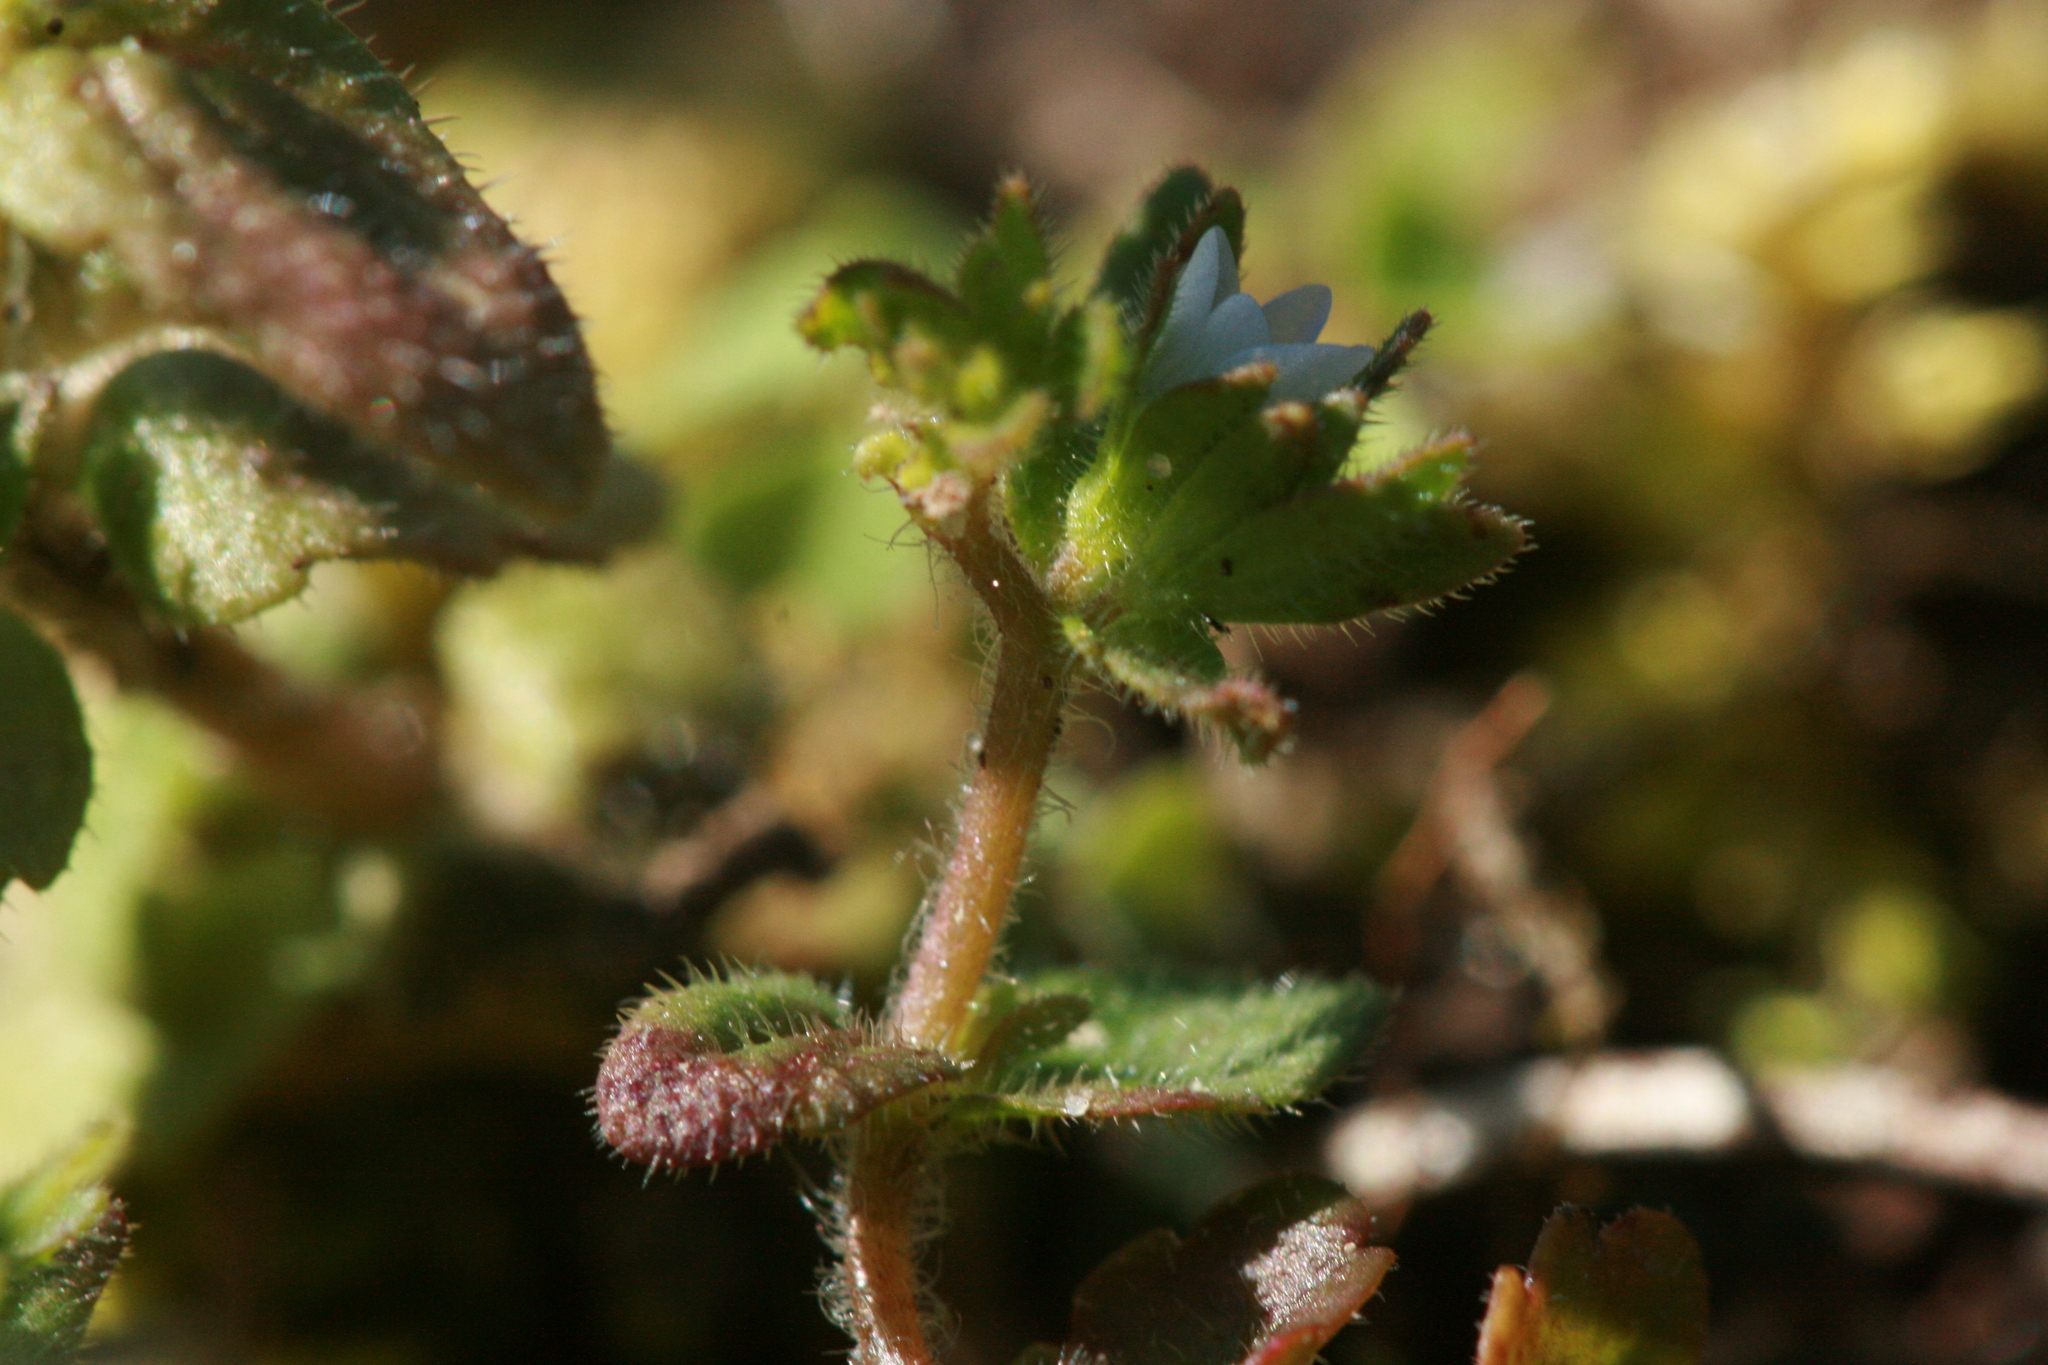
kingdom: Plantae
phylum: Tracheophyta
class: Magnoliopsida
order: Lamiales
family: Plantaginaceae
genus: Veronica
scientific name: Veronica arvensis
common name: Corn speedwell
